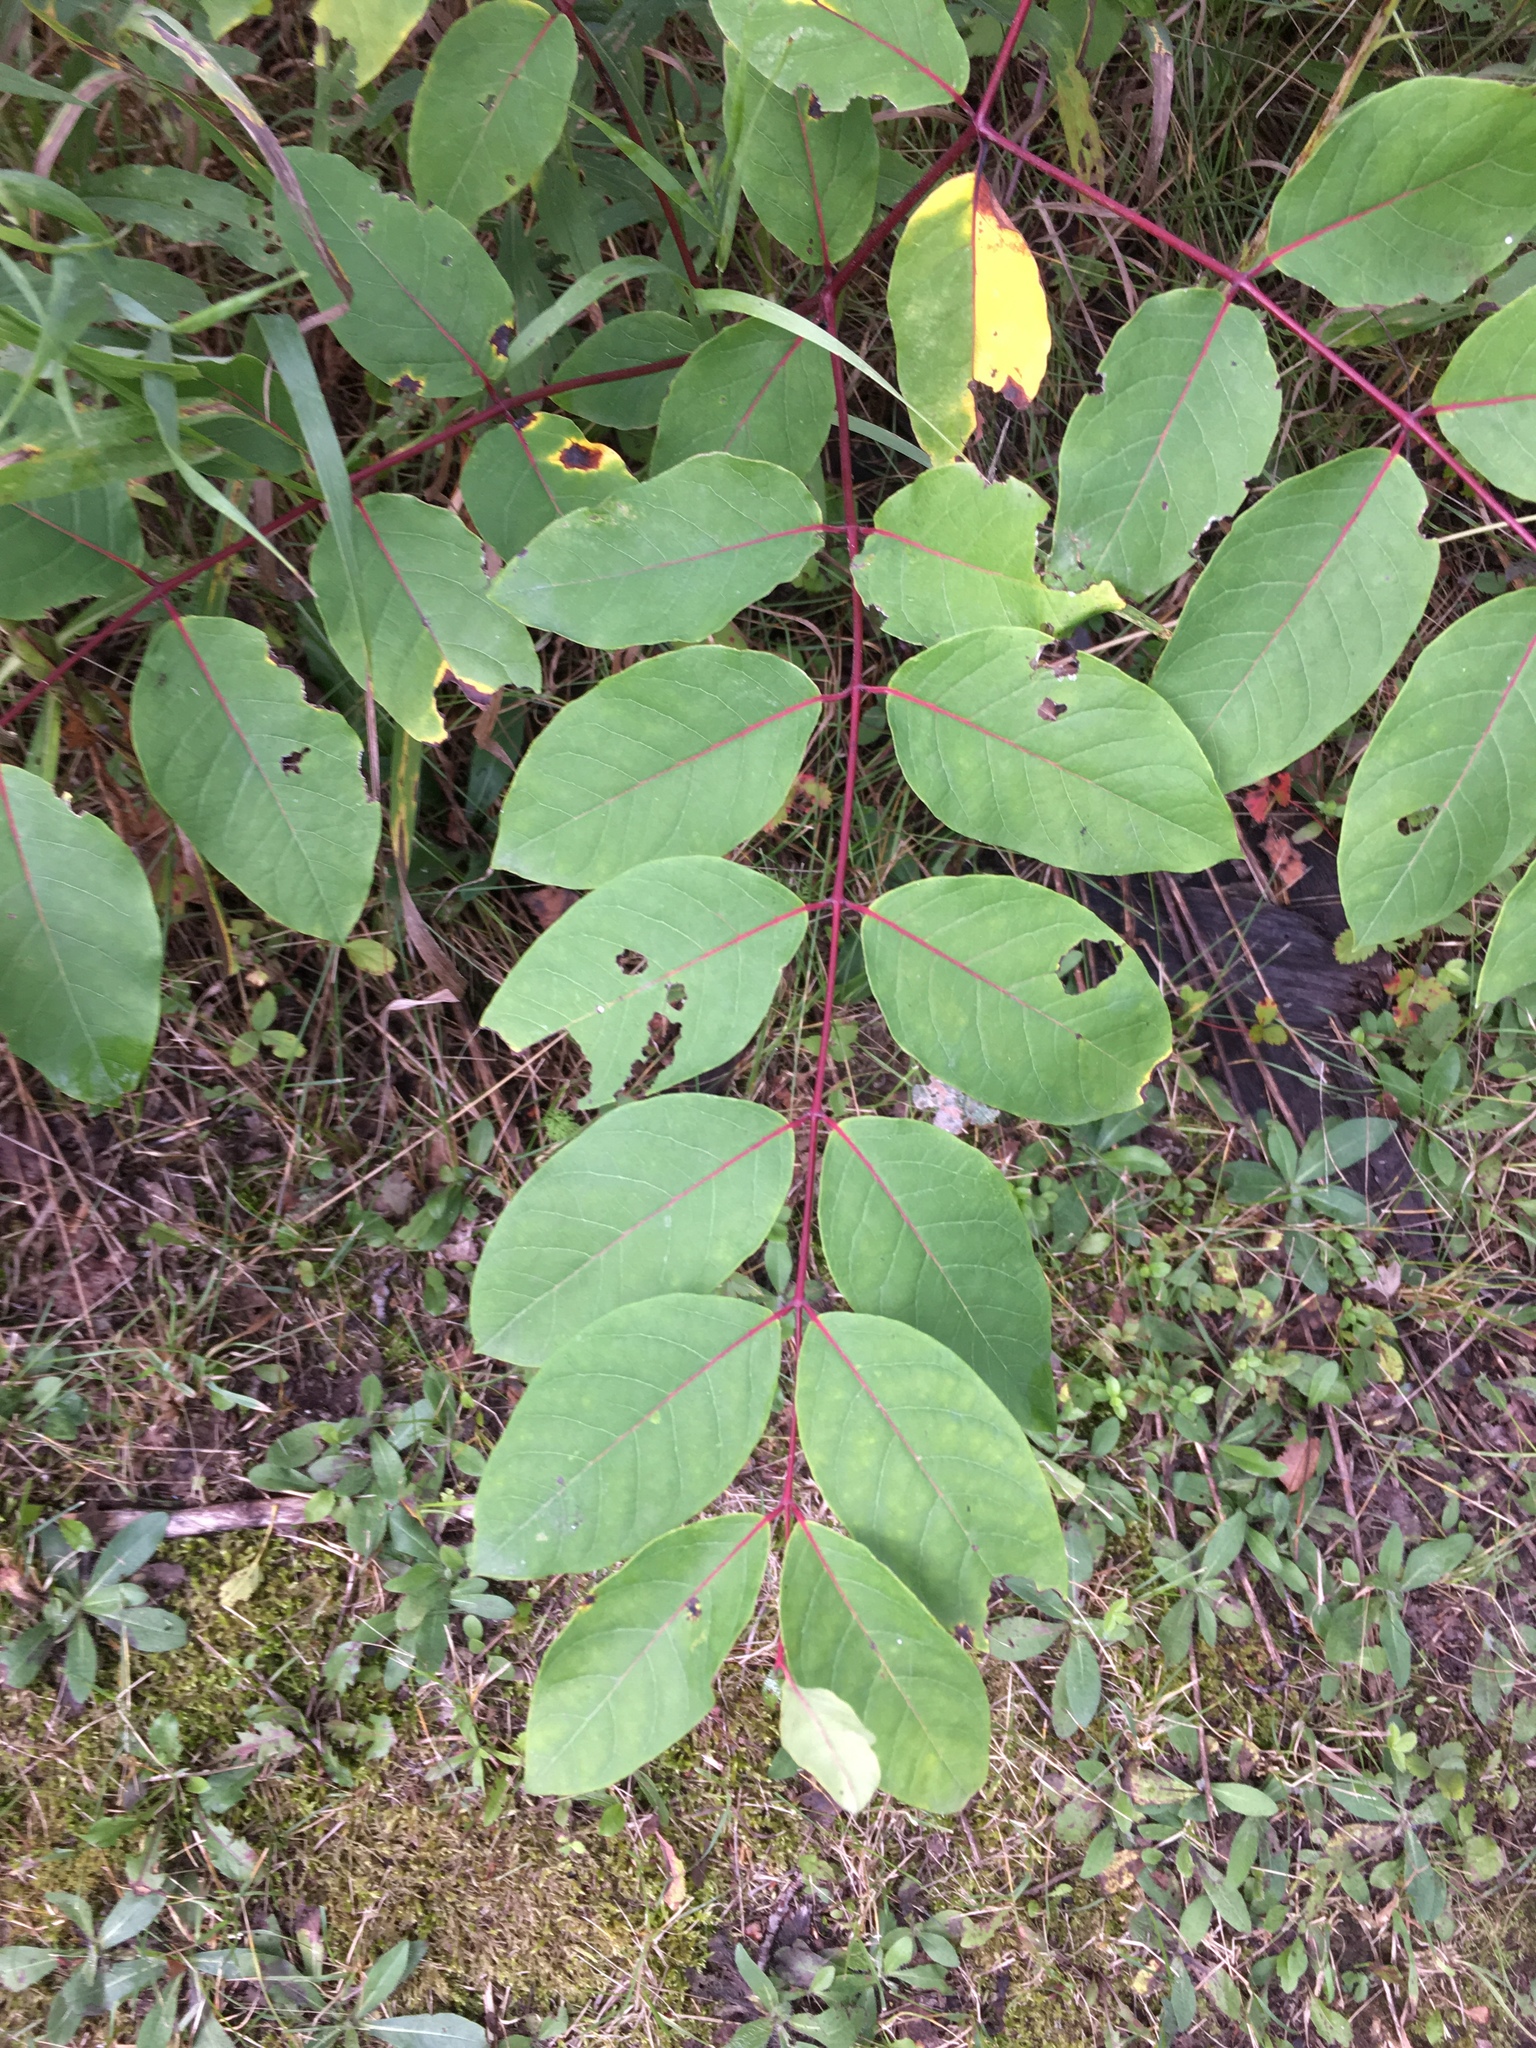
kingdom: Plantae
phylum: Tracheophyta
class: Magnoliopsida
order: Gentianales
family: Apocynaceae
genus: Apocynum
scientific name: Apocynum androsaemifolium
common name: Spreading dogbane
